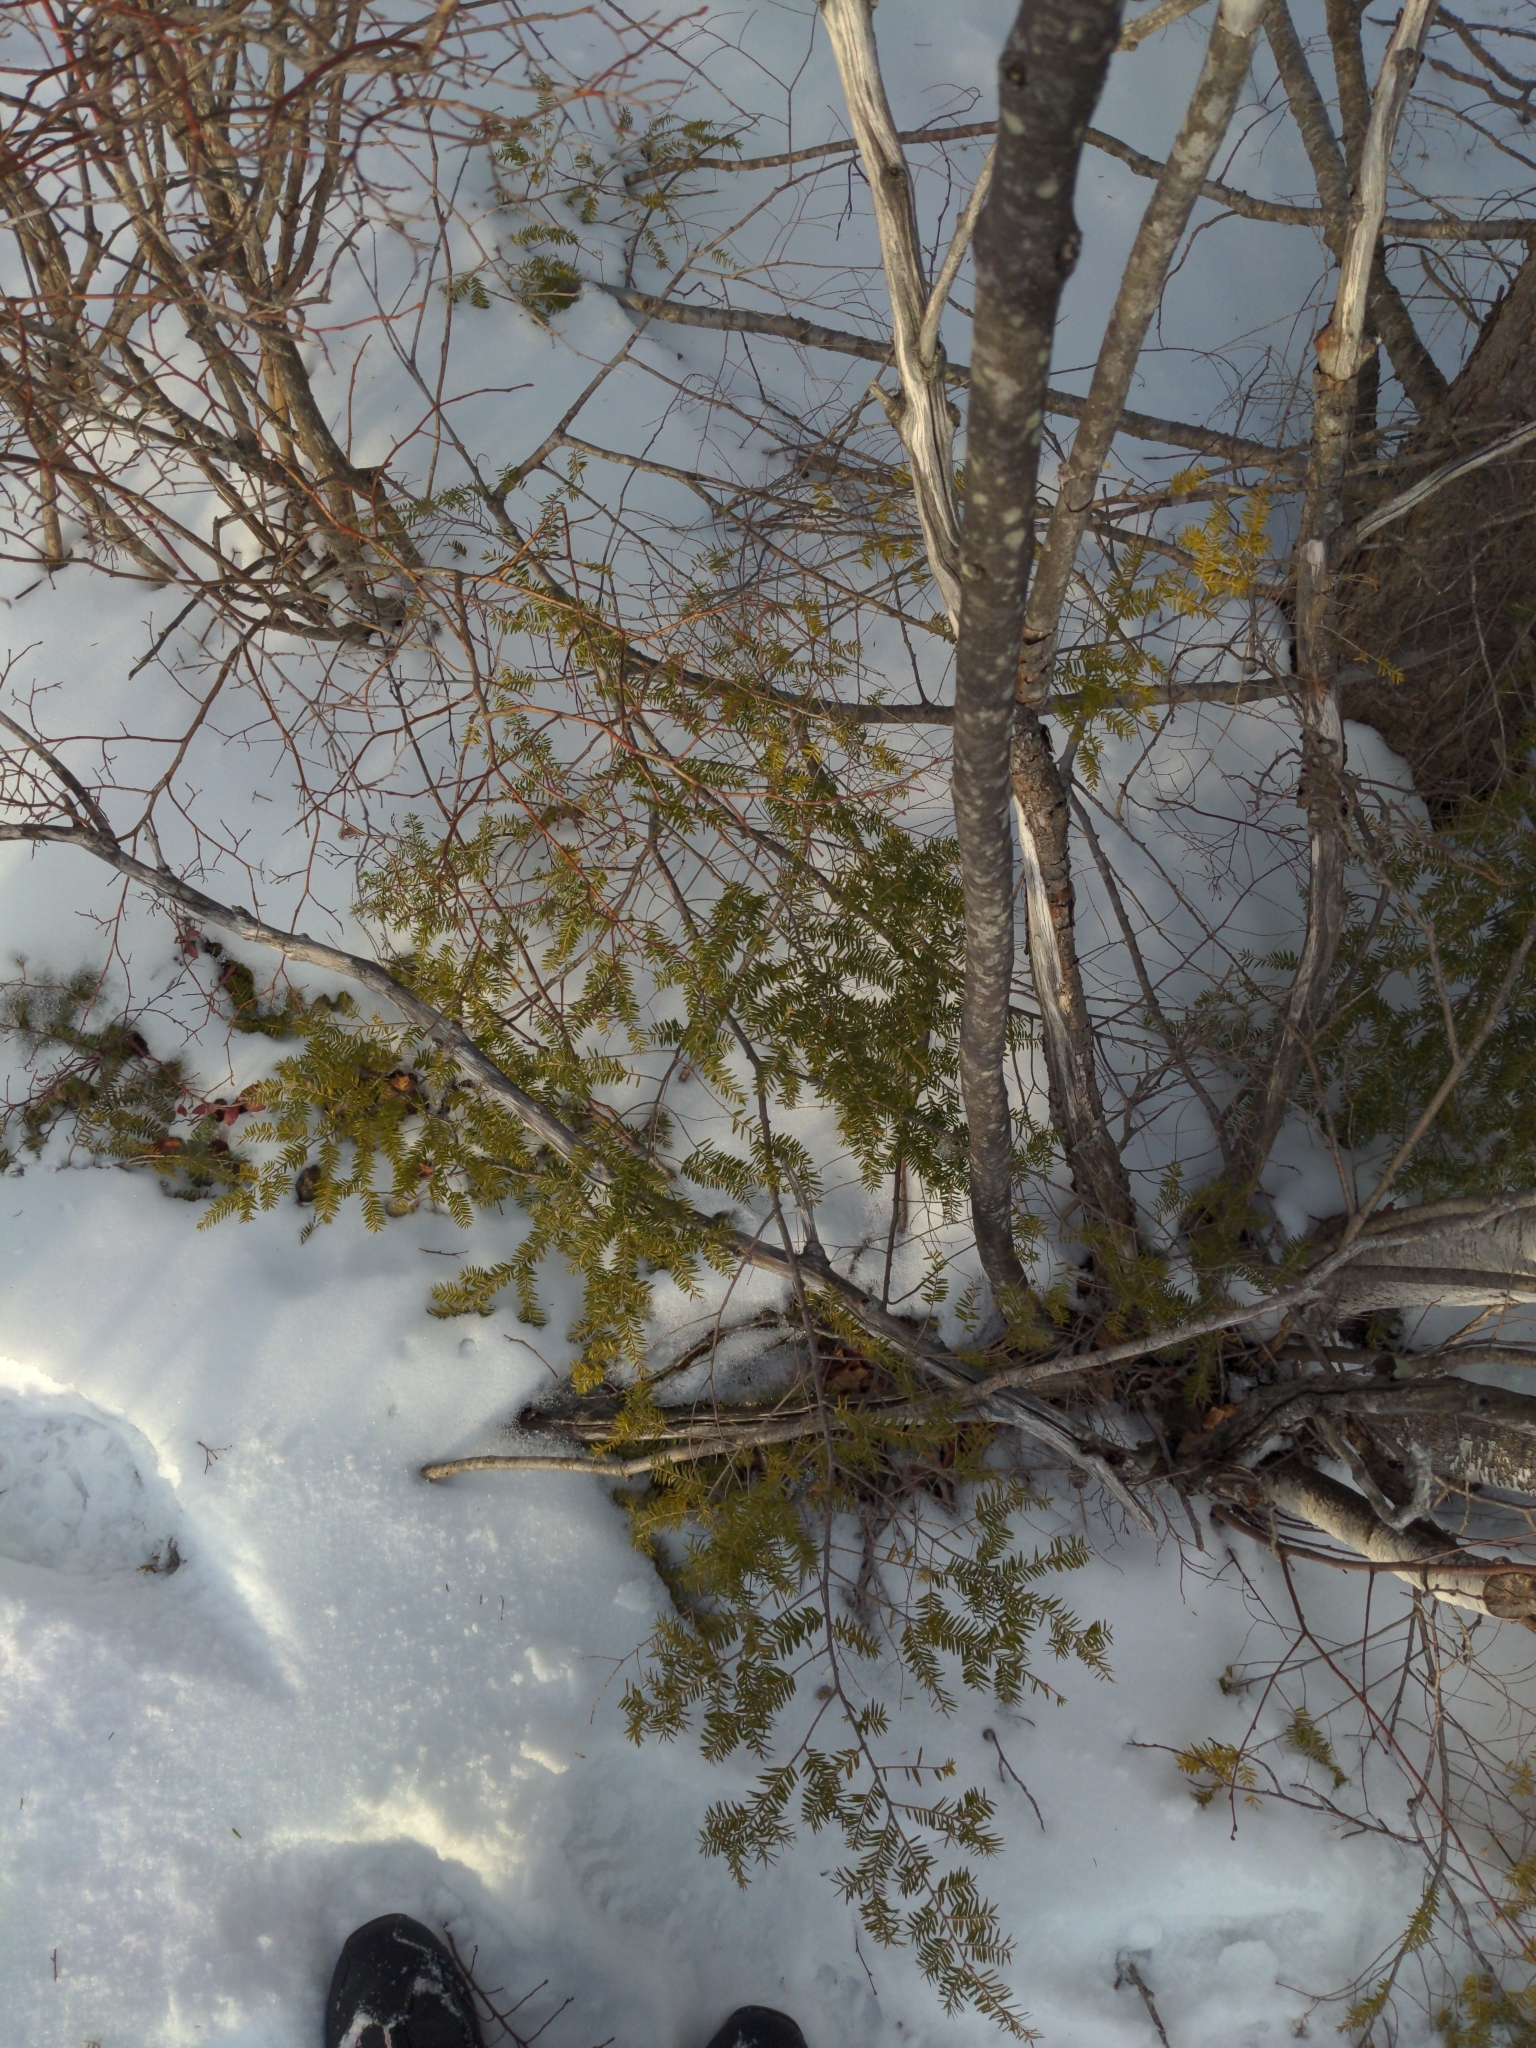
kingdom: Plantae
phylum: Tracheophyta
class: Pinopsida
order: Pinales
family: Pinaceae
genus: Tsuga
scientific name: Tsuga canadensis
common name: Eastern hemlock
